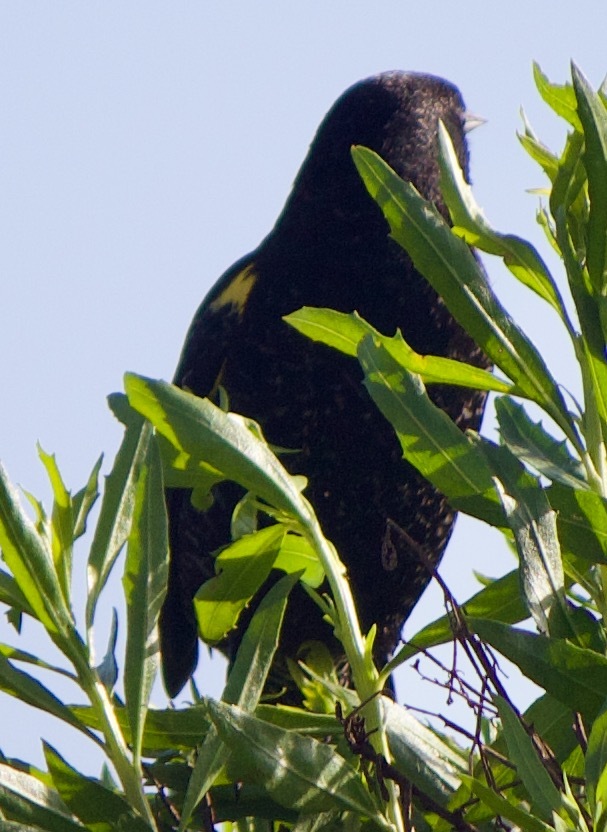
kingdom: Animalia
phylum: Chordata
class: Aves
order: Passeriformes
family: Icteridae
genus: Agelasticus
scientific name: Agelasticus thilius
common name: Yellow-winged blackbird
